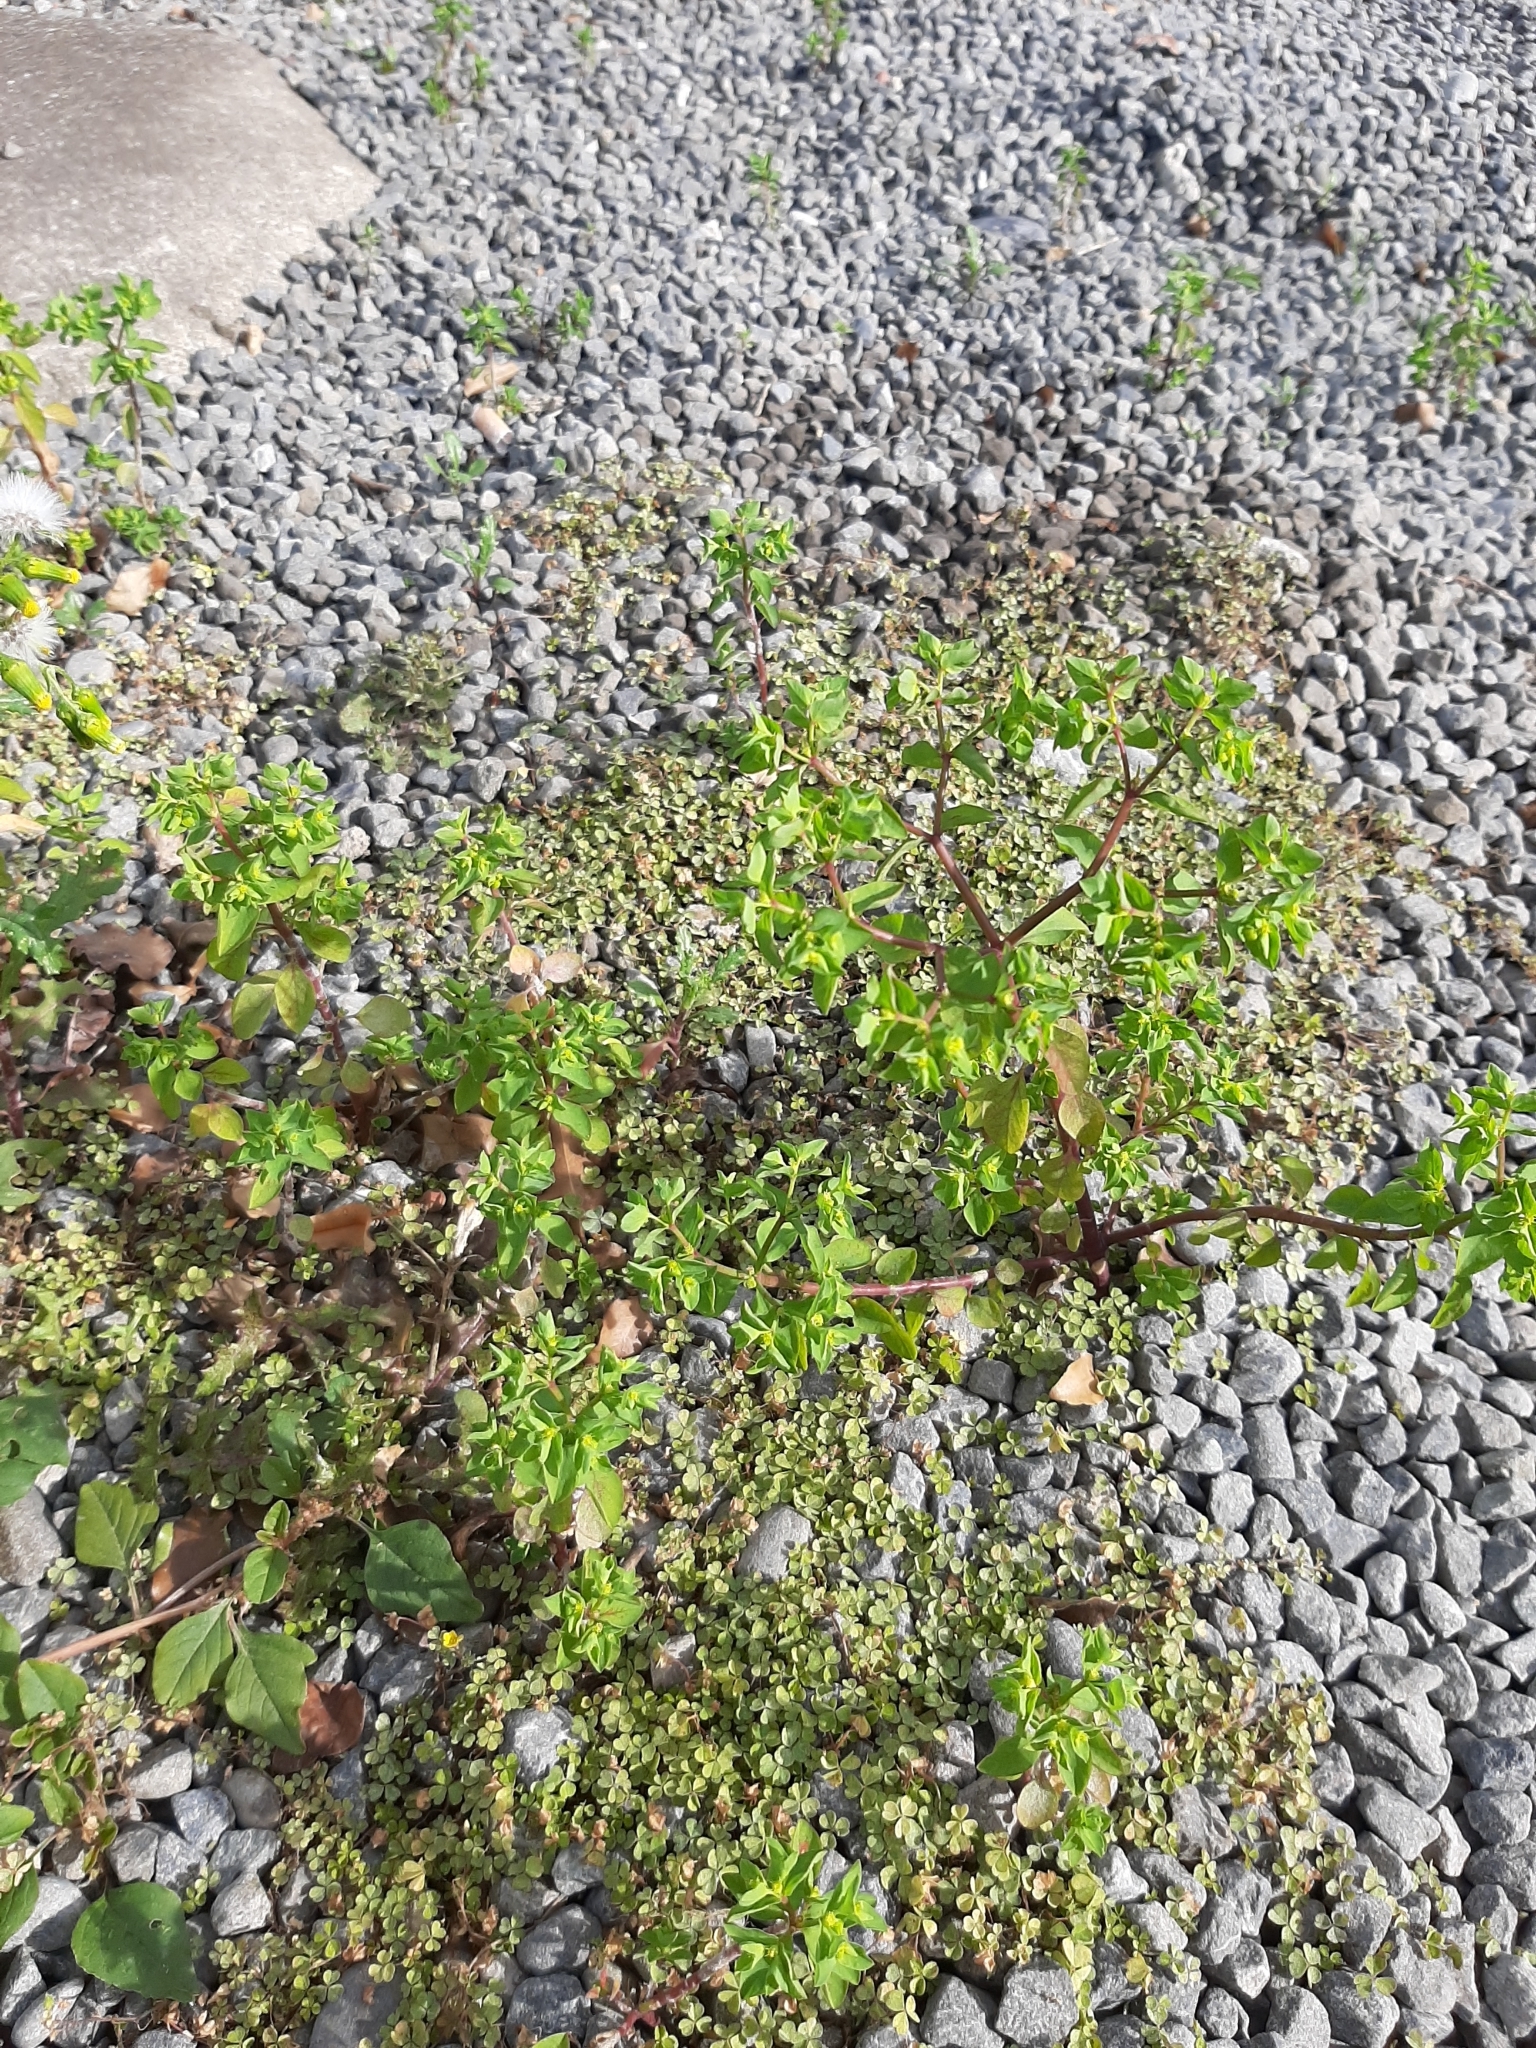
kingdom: Plantae
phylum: Tracheophyta
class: Magnoliopsida
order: Malpighiales
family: Euphorbiaceae
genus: Euphorbia
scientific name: Euphorbia peplus
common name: Petty spurge
